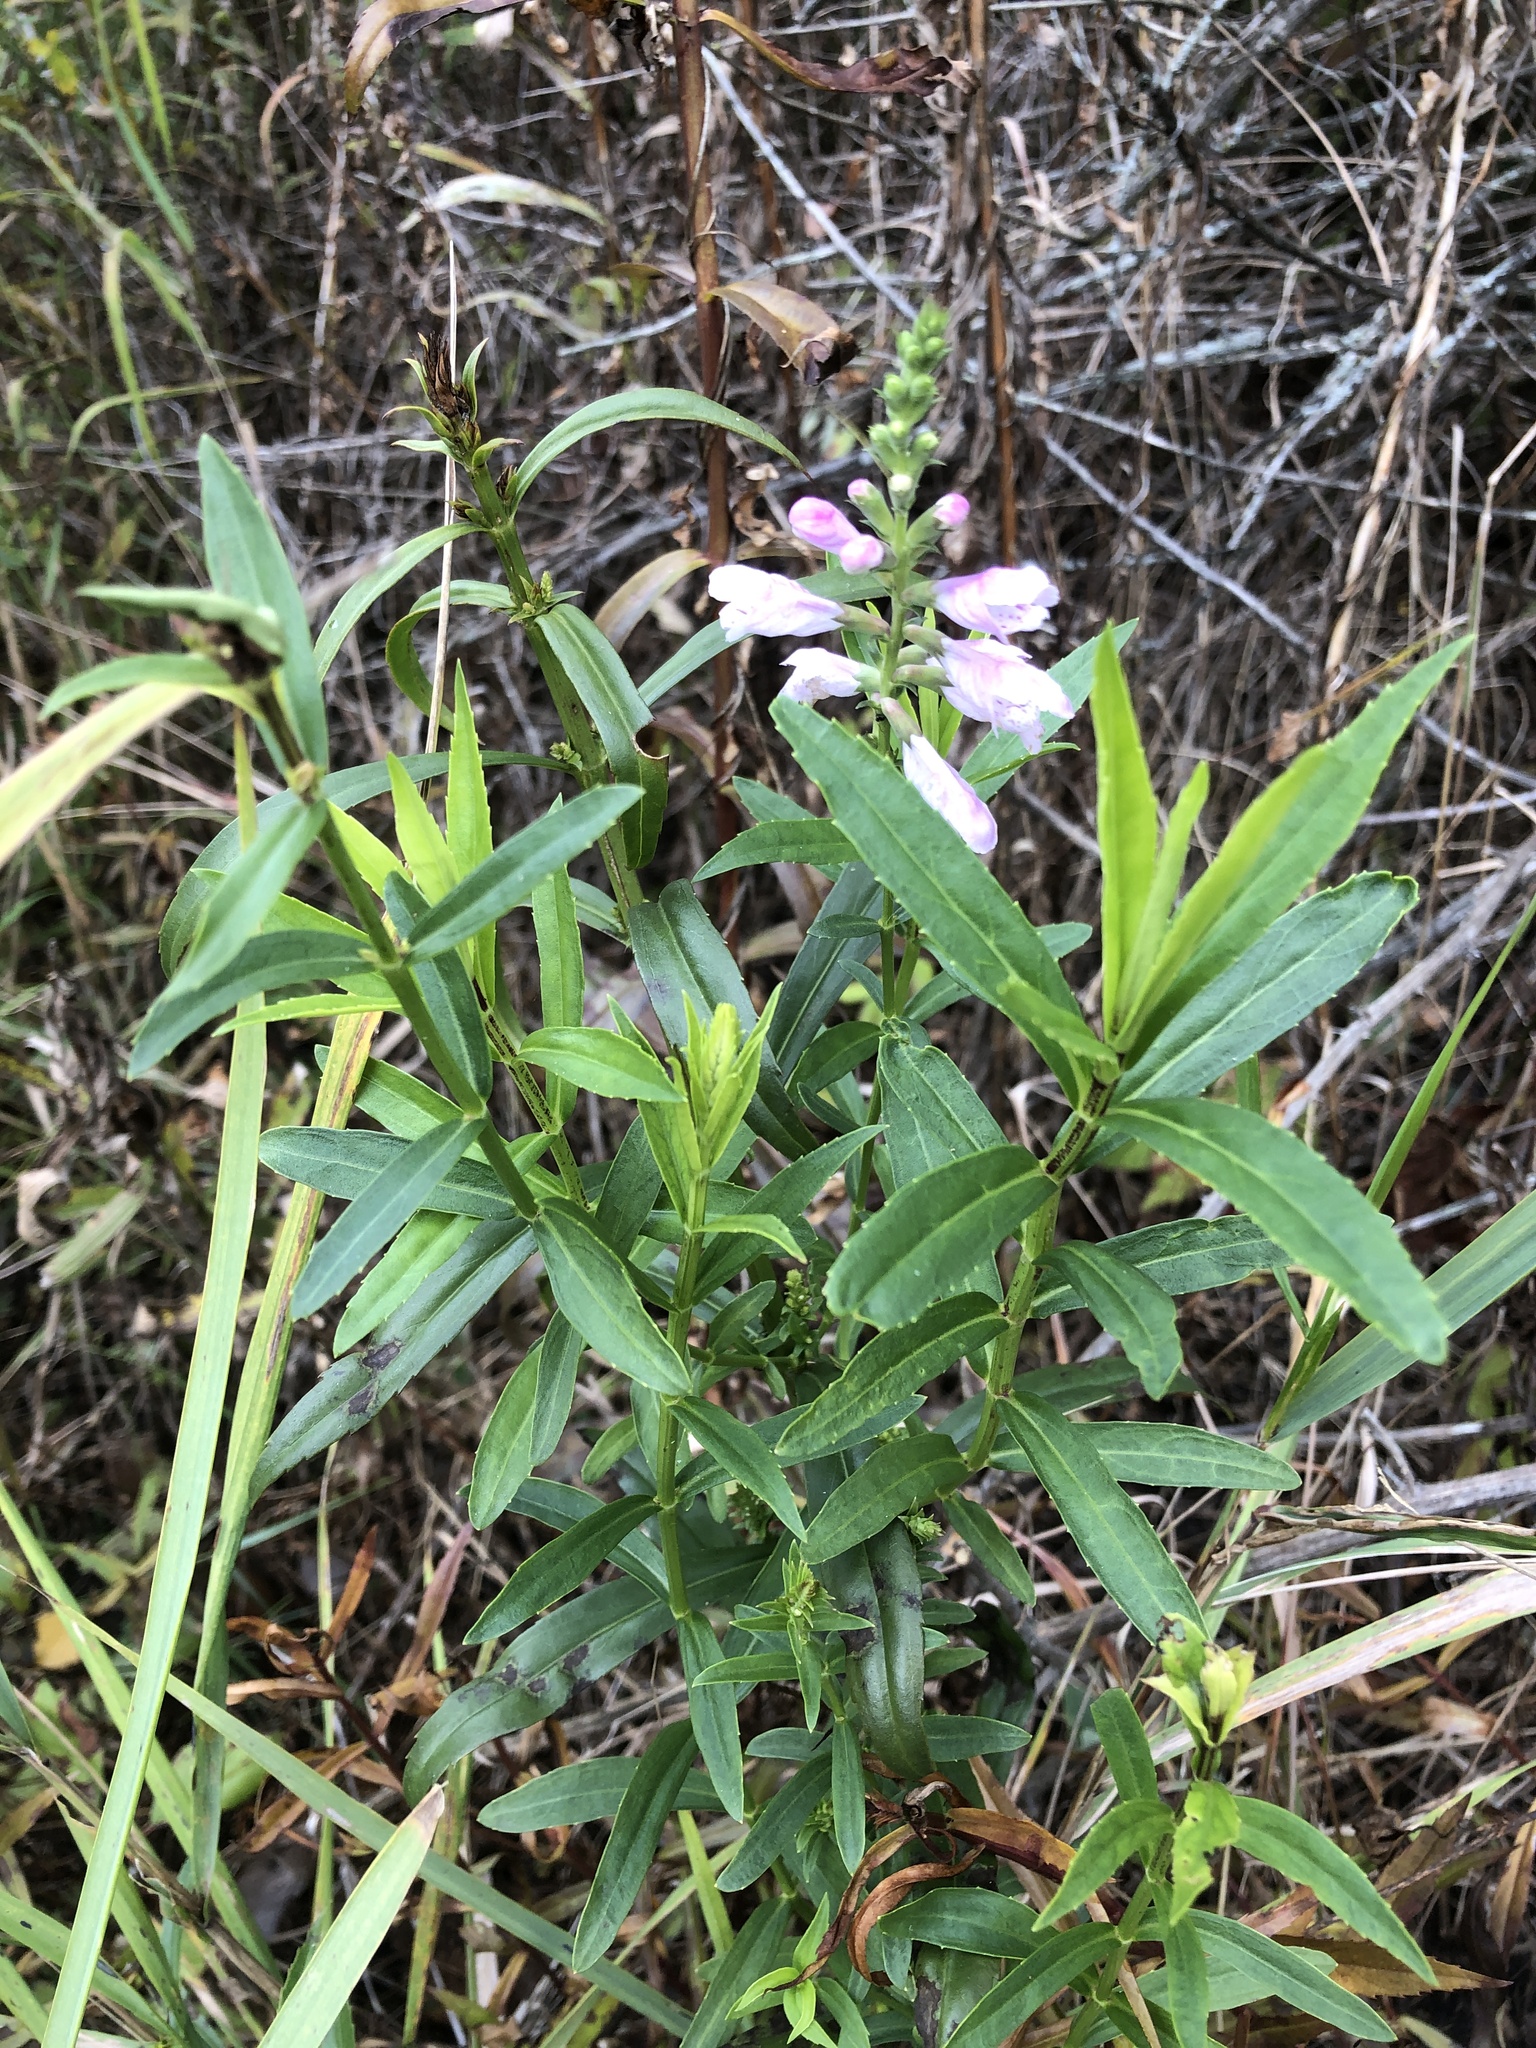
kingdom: Plantae
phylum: Tracheophyta
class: Magnoliopsida
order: Lamiales
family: Lamiaceae
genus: Physostegia
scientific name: Physostegia virginiana
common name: Obedient-plant
